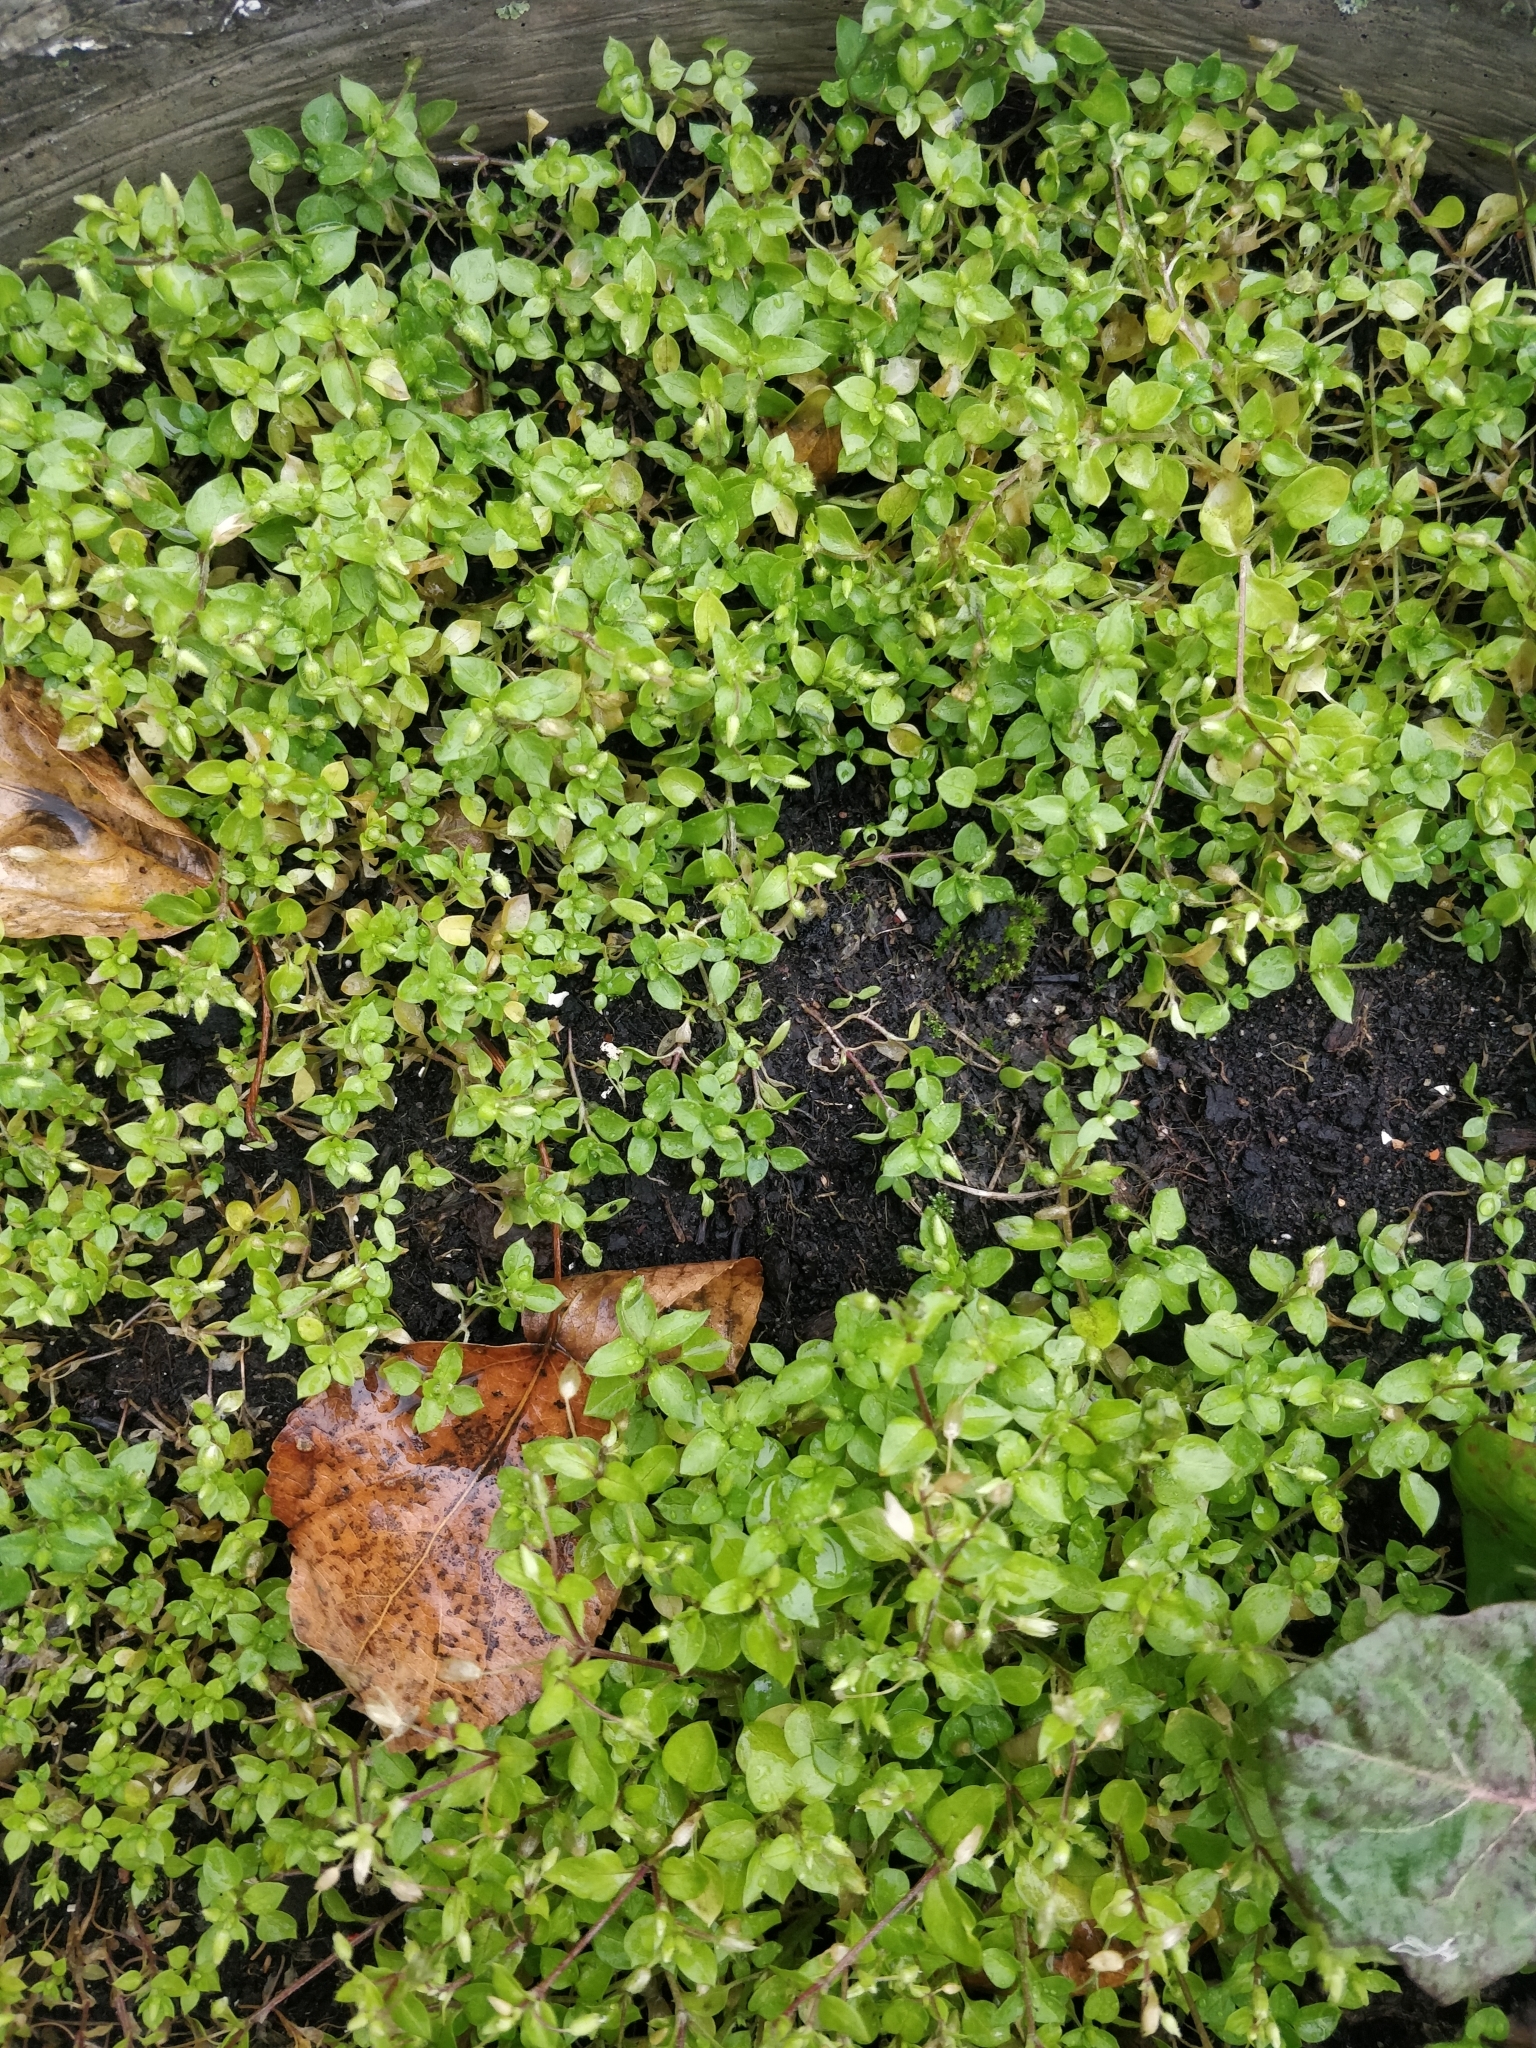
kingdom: Plantae
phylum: Tracheophyta
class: Magnoliopsida
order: Caryophyllales
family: Caryophyllaceae
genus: Stellaria
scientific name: Stellaria media
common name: Common chickweed
